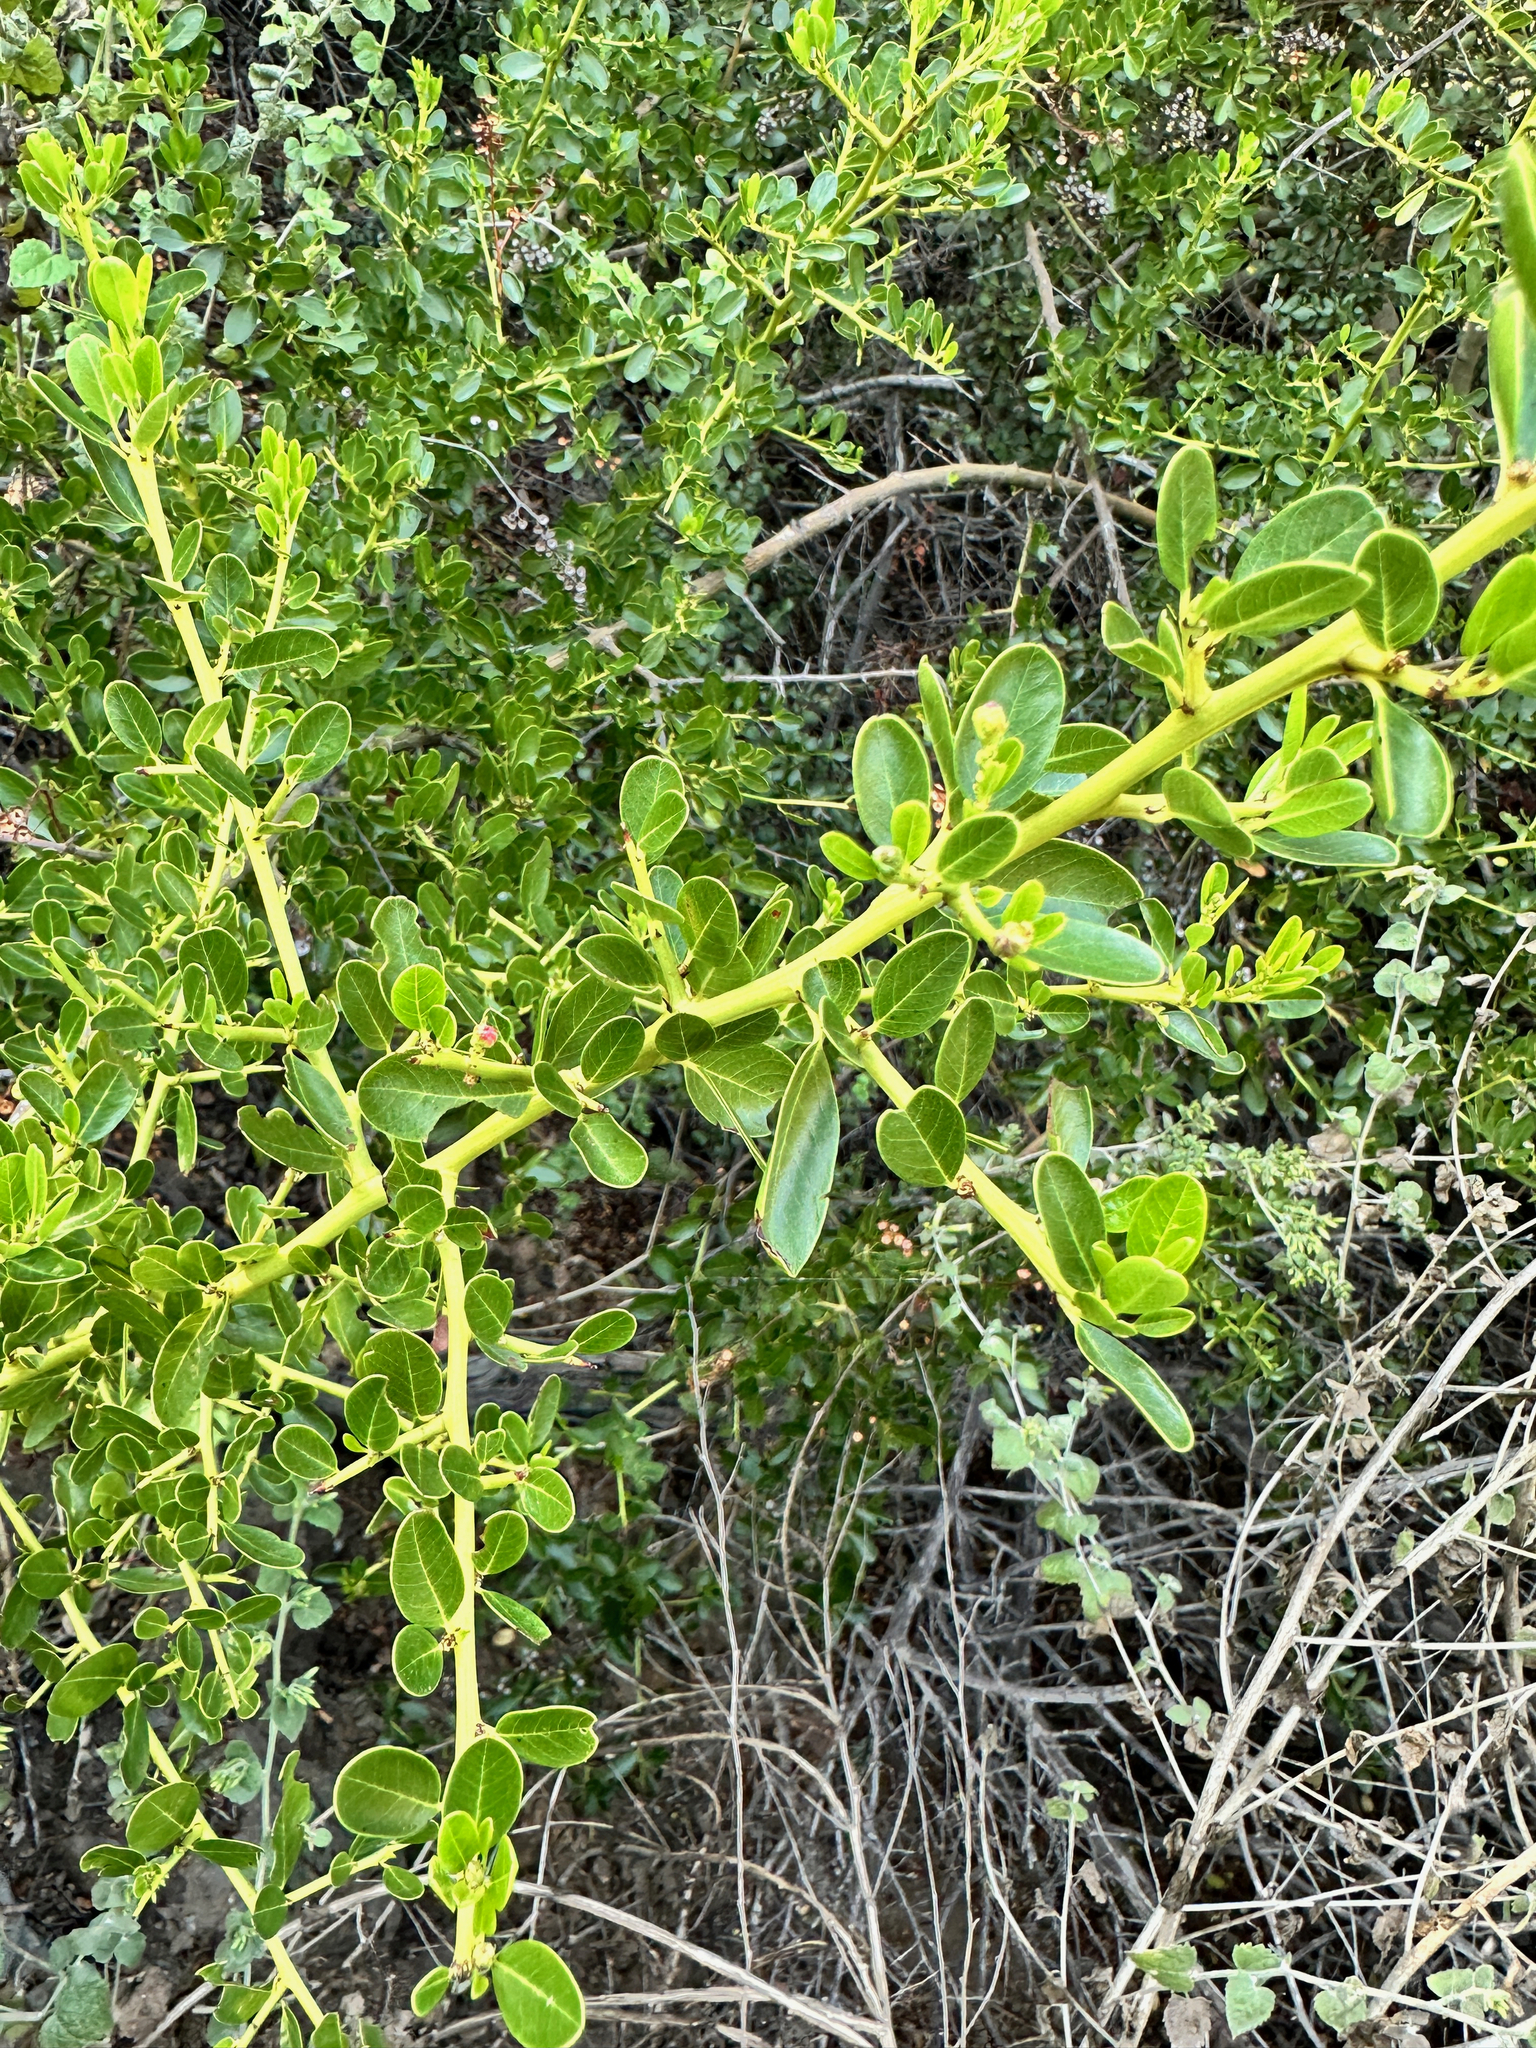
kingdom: Plantae
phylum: Tracheophyta
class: Magnoliopsida
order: Rosales
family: Rhamnaceae
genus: Ceanothus
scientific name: Ceanothus spinosus
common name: Greenbark whitethorn
